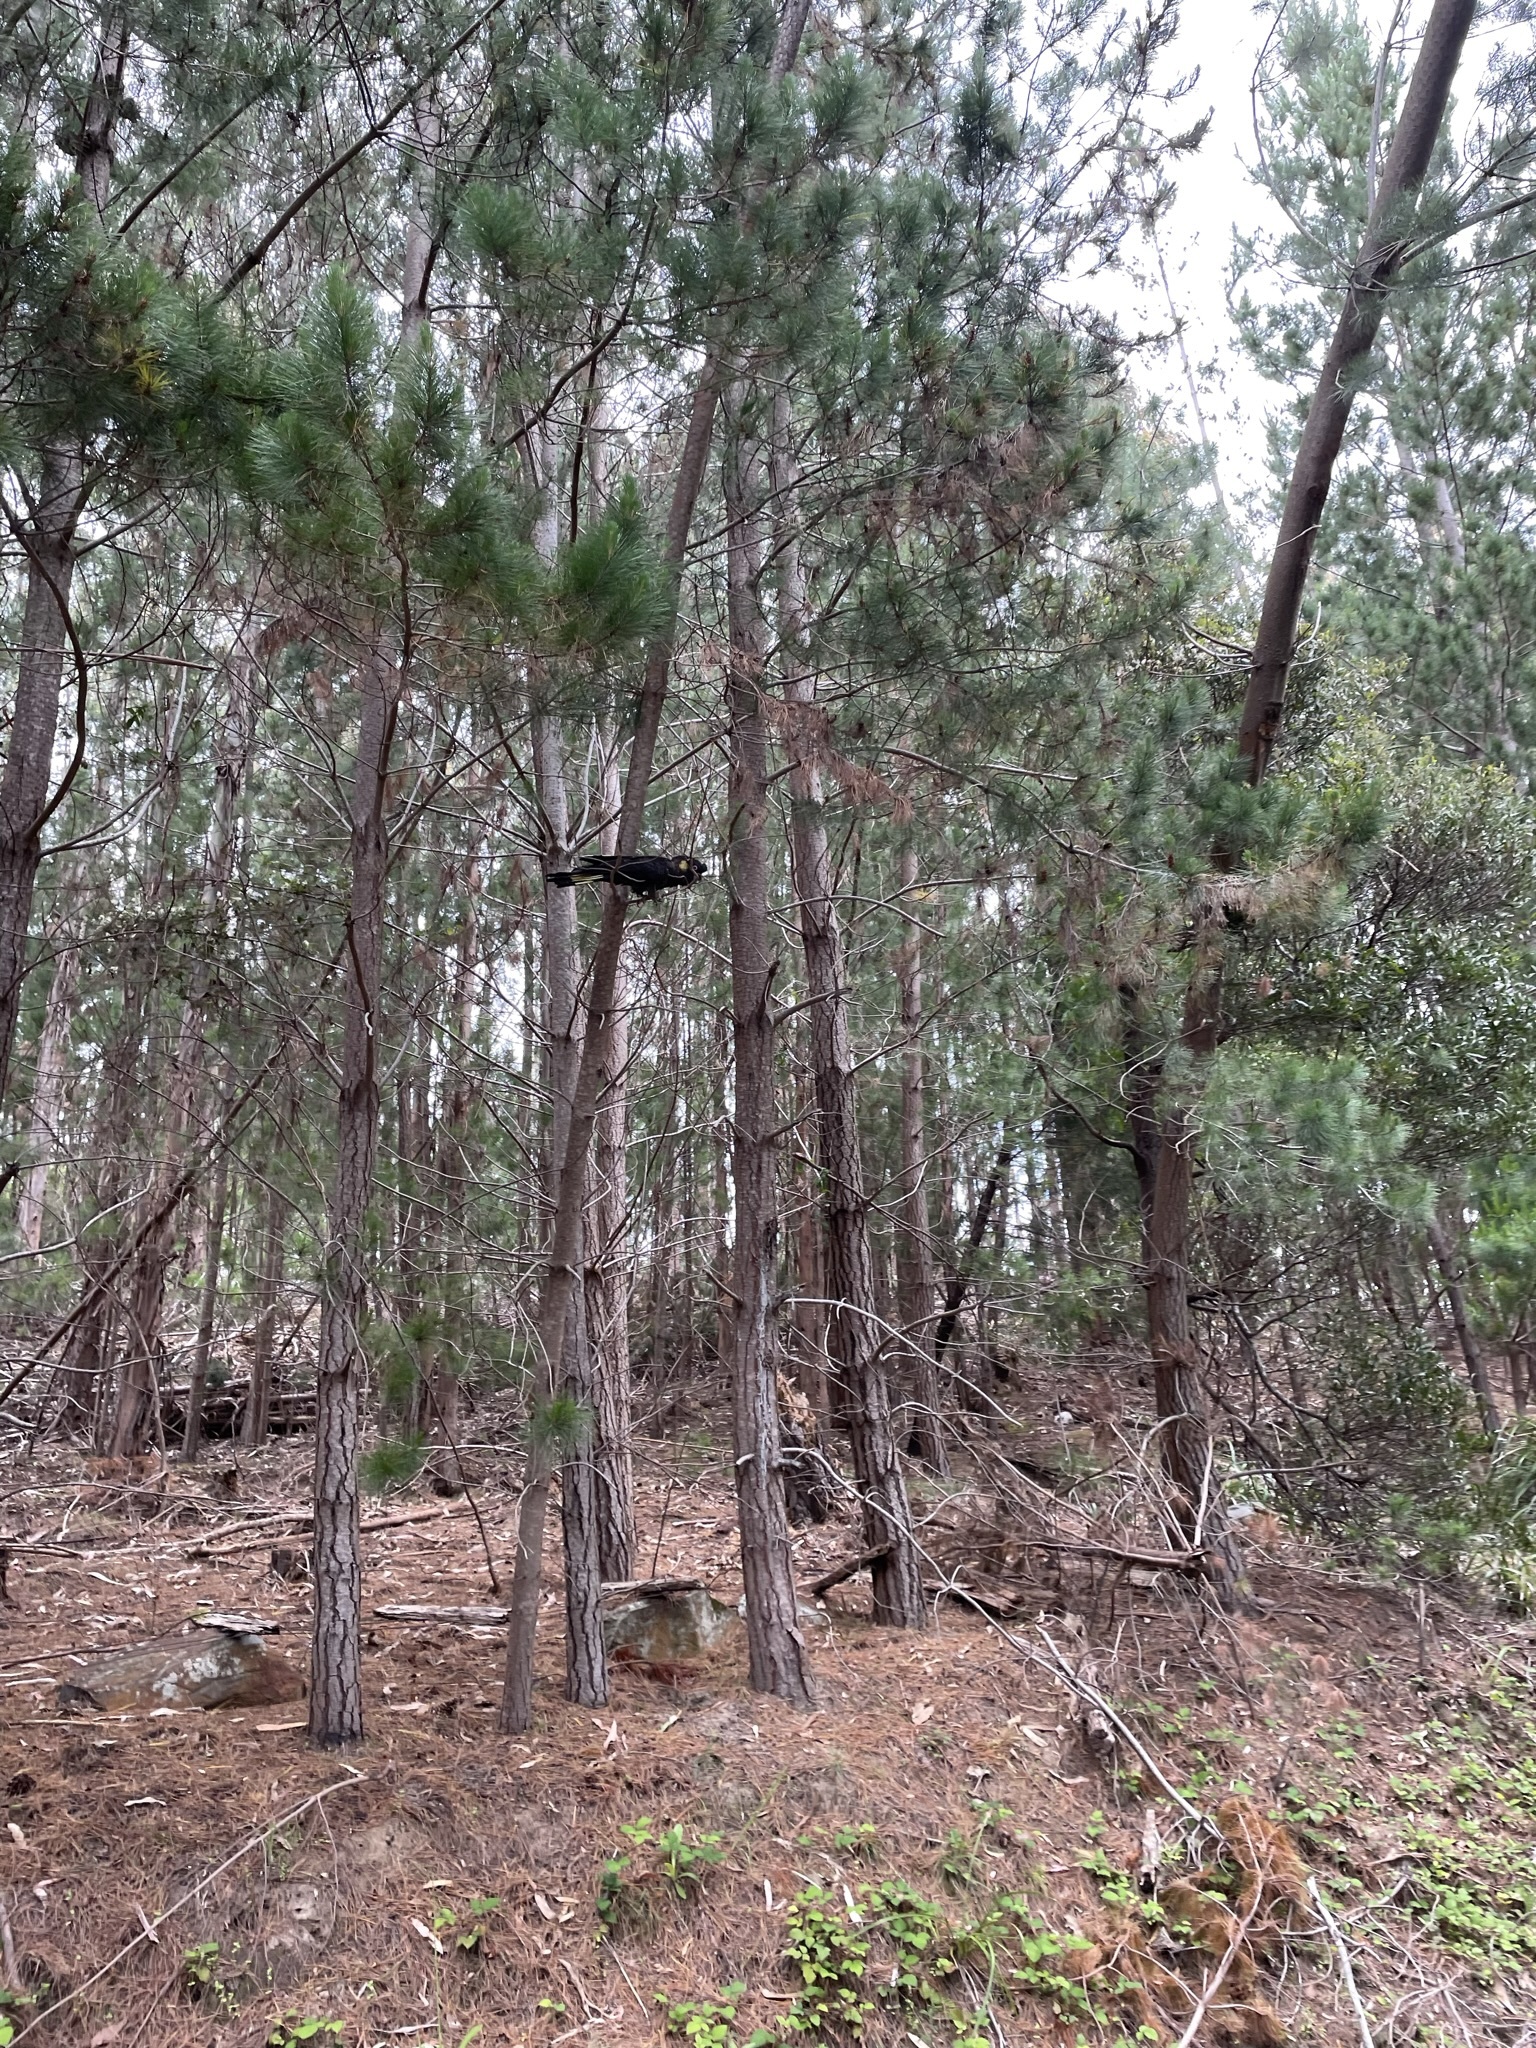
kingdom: Animalia
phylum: Chordata
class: Aves
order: Psittaciformes
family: Cacatuidae
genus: Zanda
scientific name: Zanda funerea
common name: Yellow-tailed black-cockatoo
